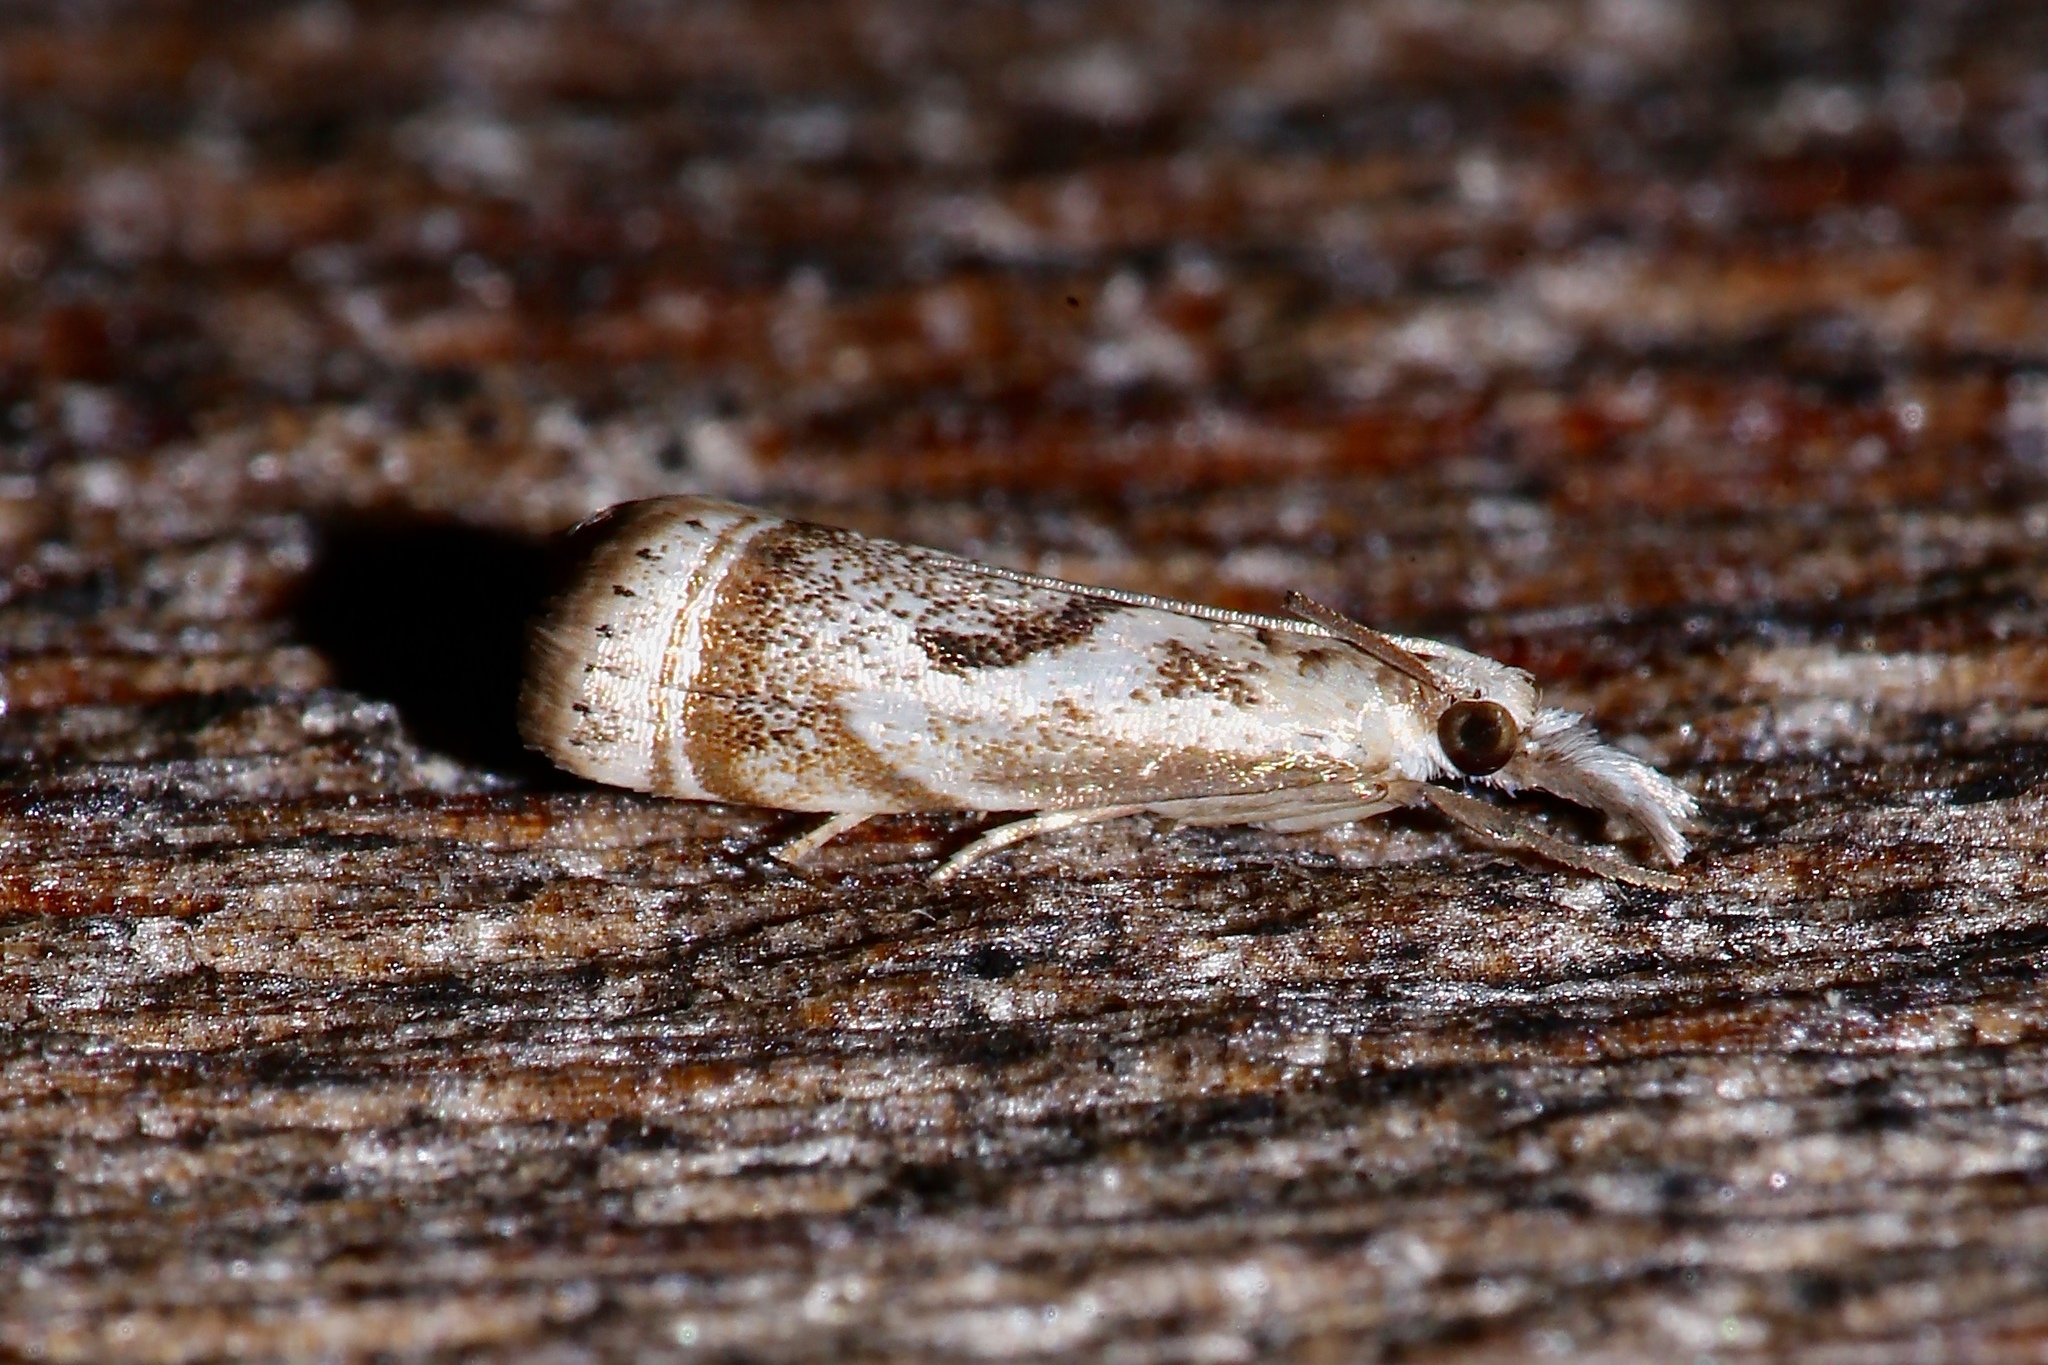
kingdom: Animalia
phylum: Arthropoda
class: Insecta
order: Lepidoptera
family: Crambidae
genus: Microcrambus
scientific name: Microcrambus elegans
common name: Elegant grass-veneer
